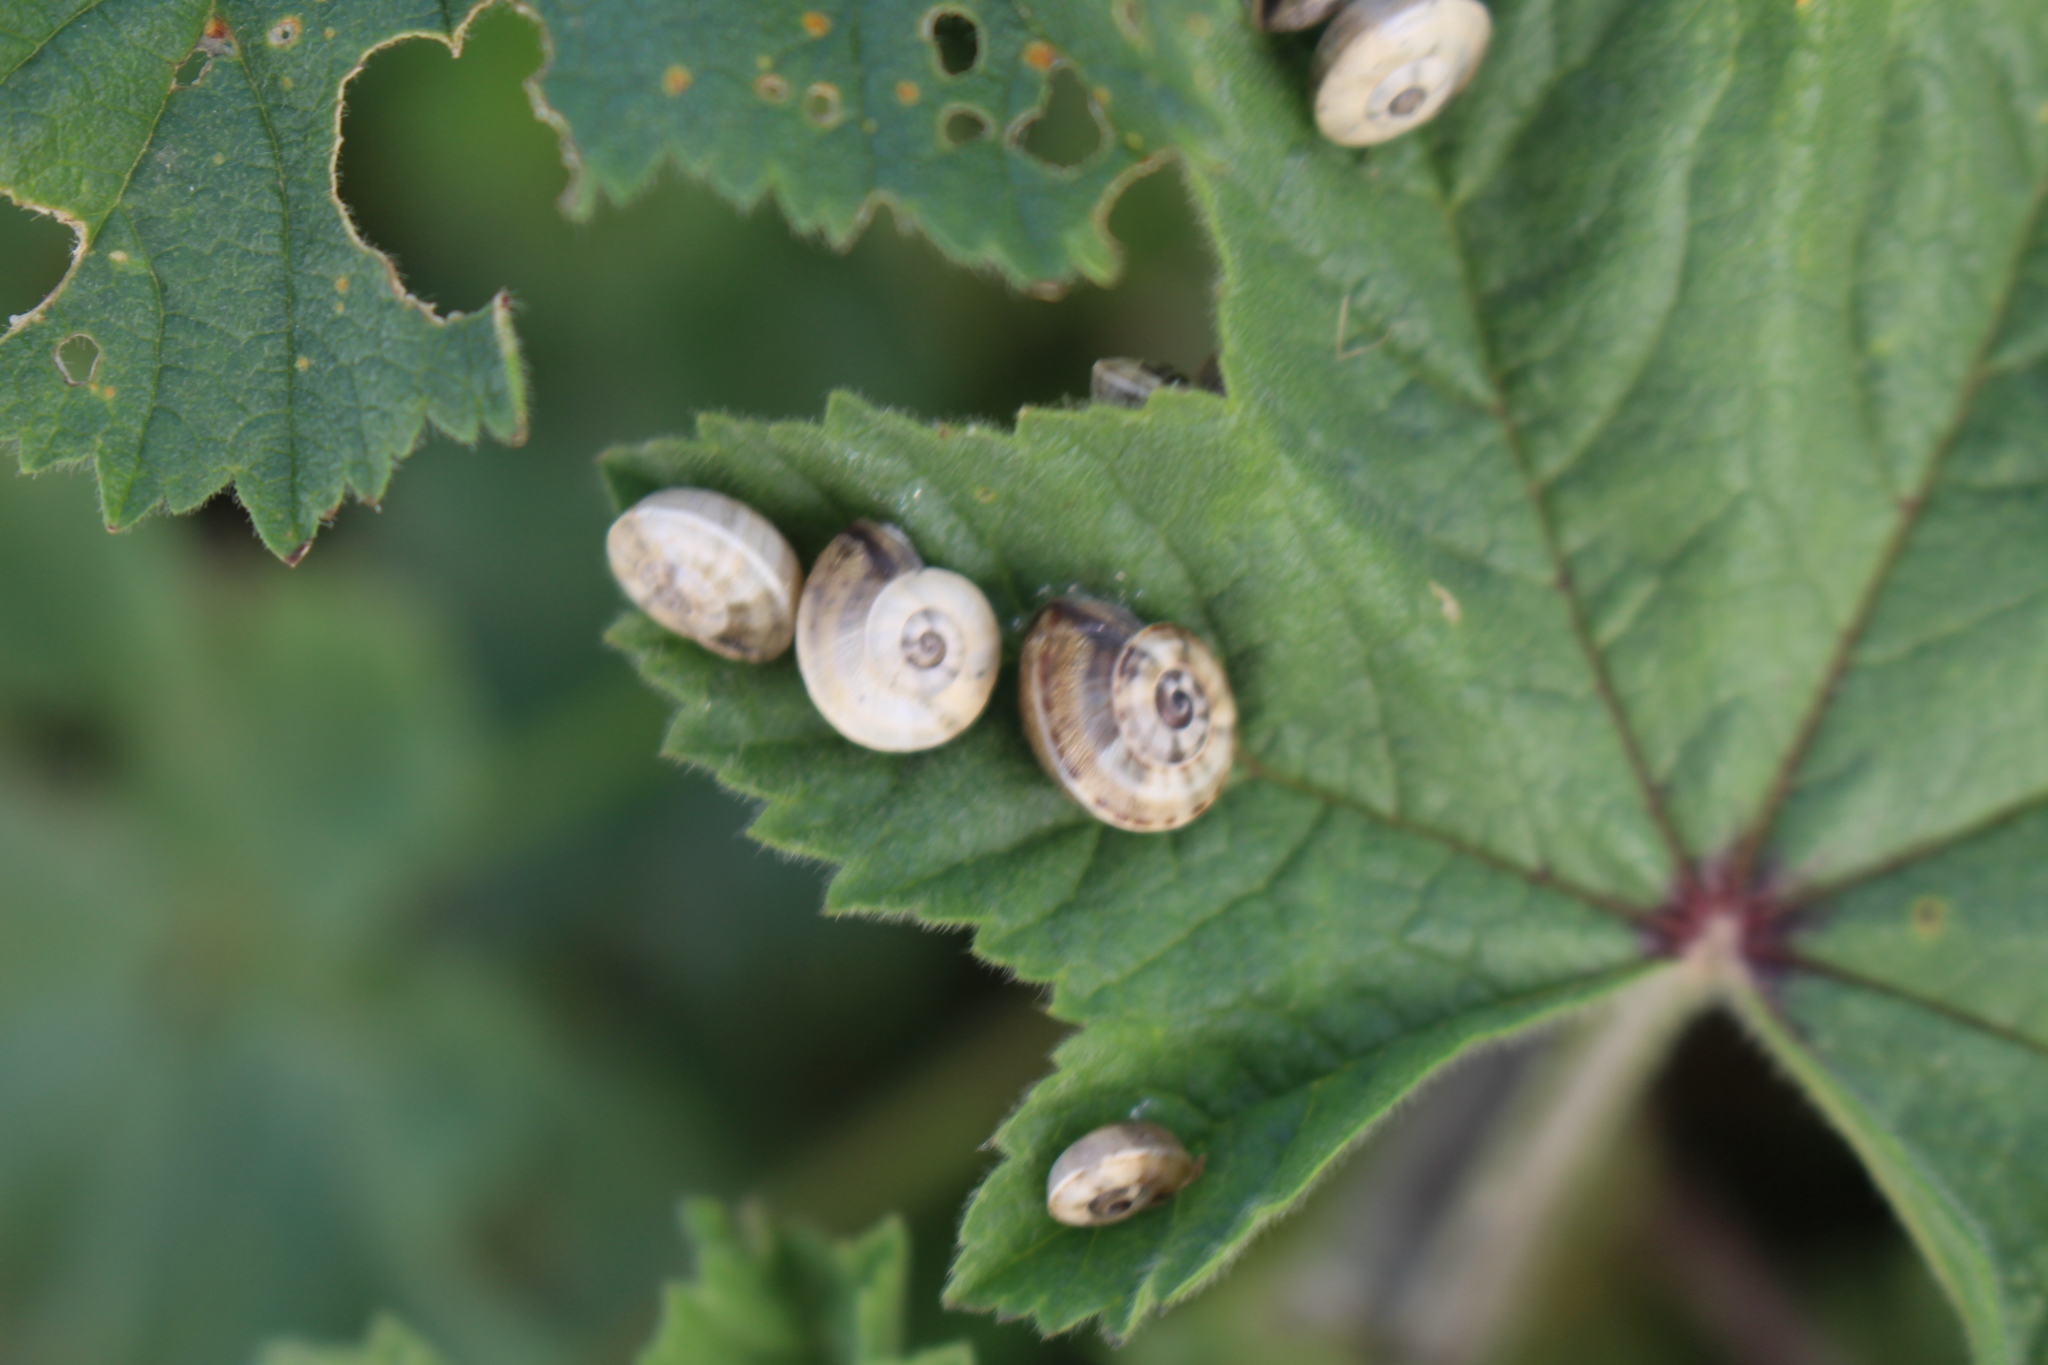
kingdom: Animalia
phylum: Mollusca
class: Gastropoda
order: Stylommatophora
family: Helicidae
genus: Theba
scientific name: Theba pisana
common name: White snail
